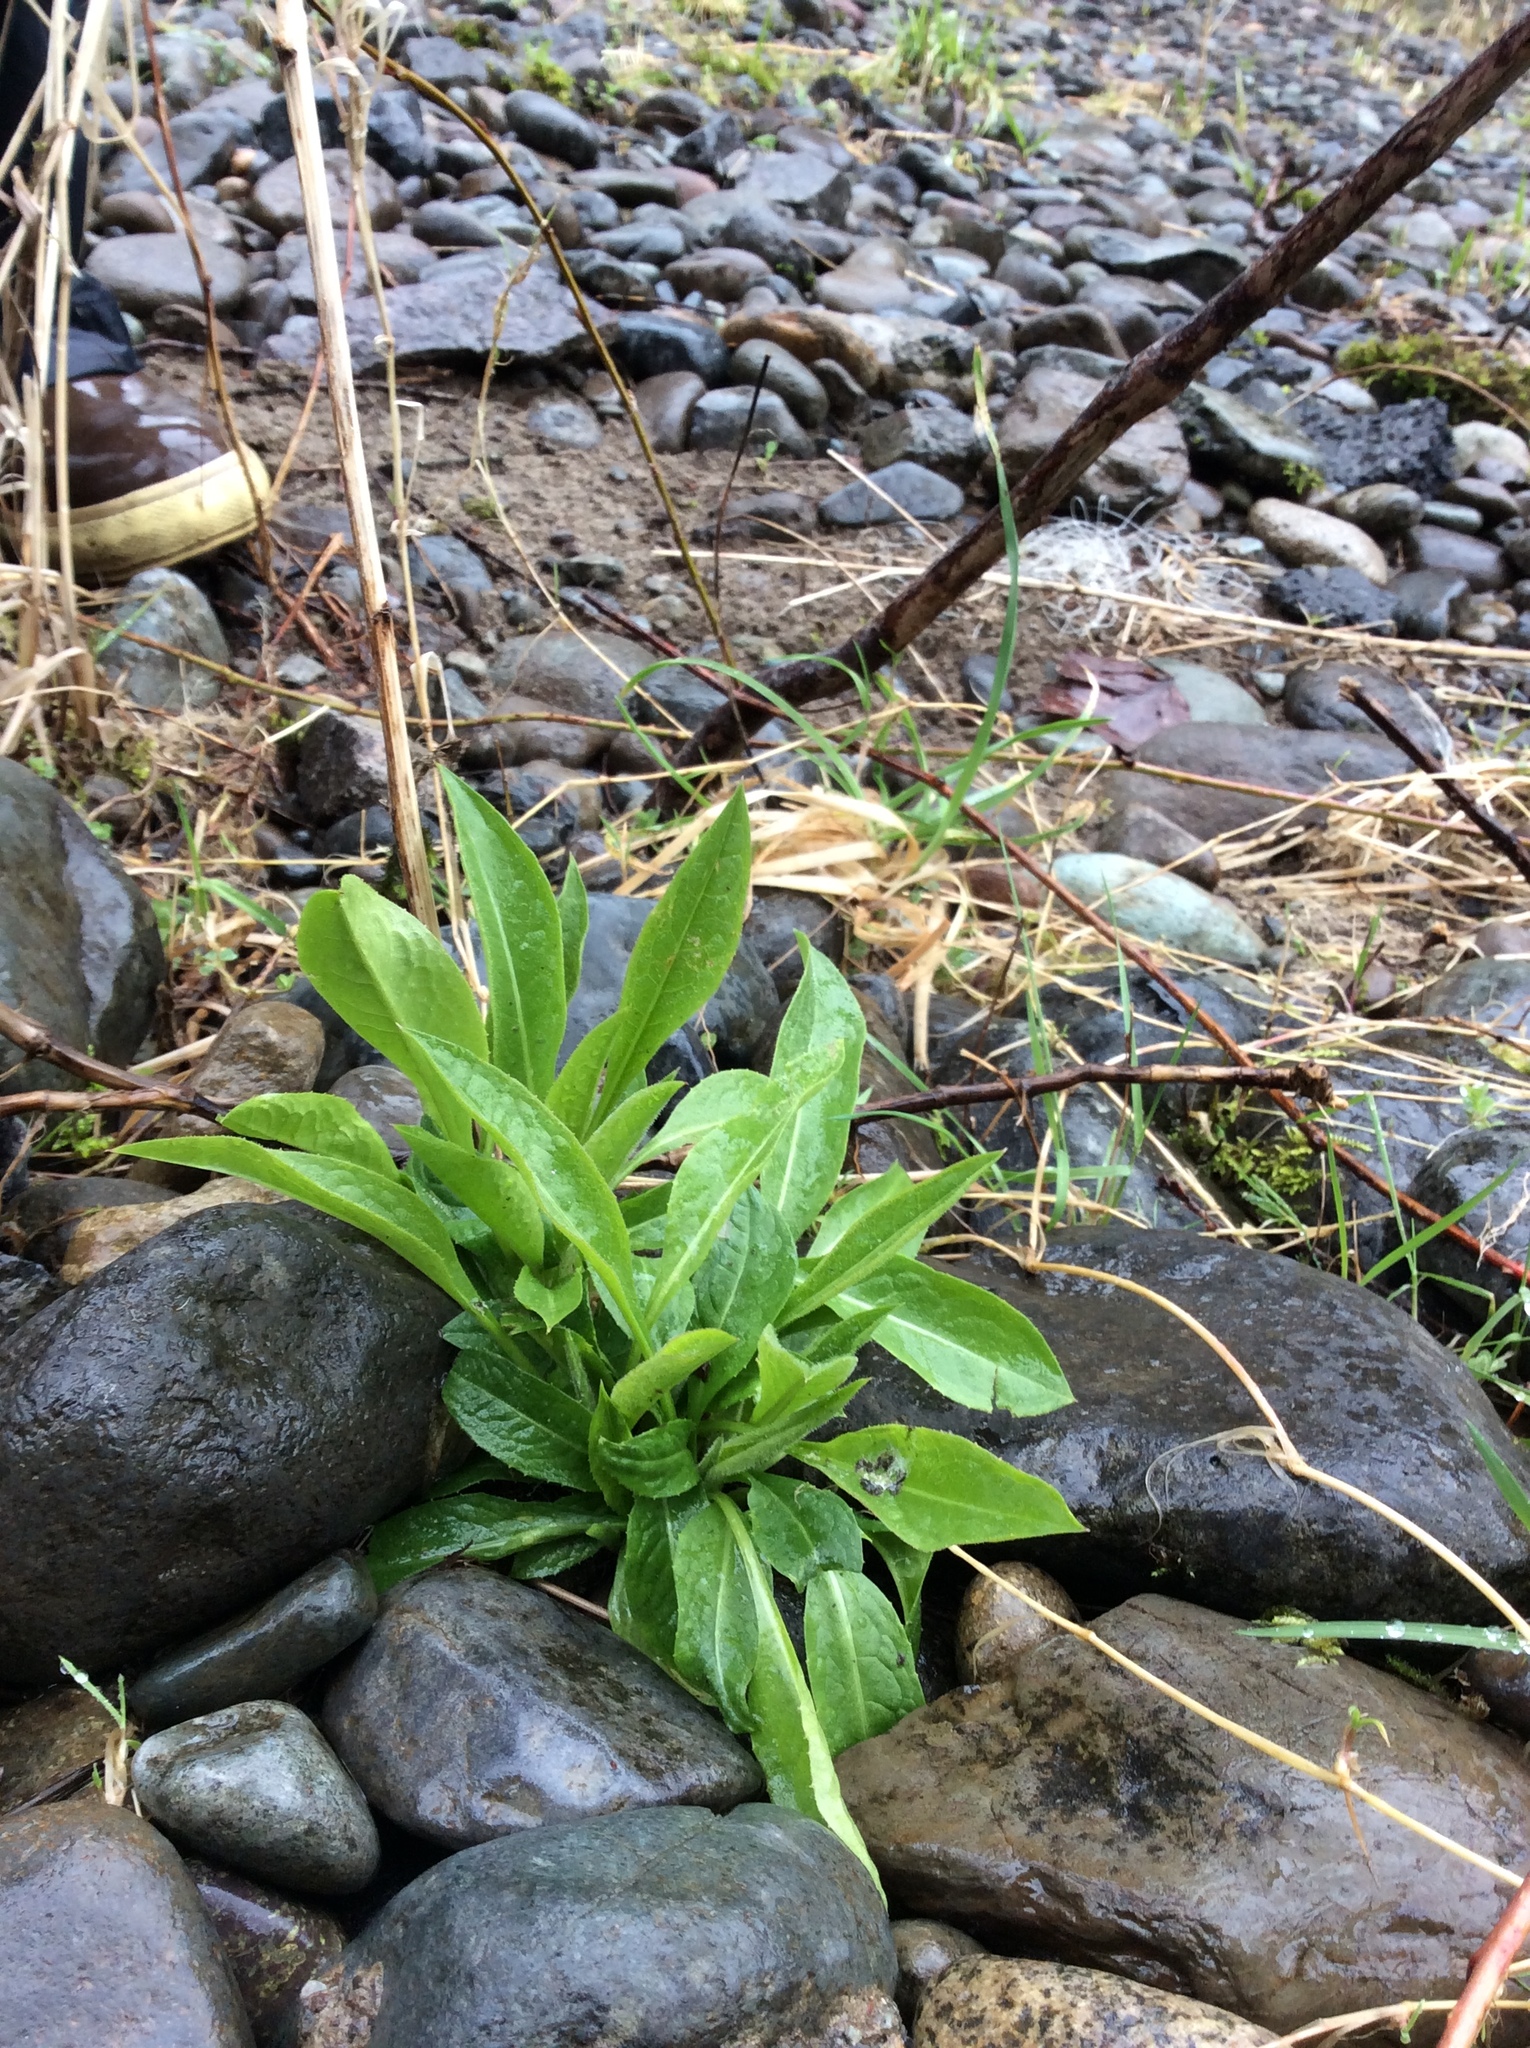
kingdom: Plantae
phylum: Tracheophyta
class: Magnoliopsida
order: Brassicales
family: Brassicaceae
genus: Hesperis
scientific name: Hesperis matronalis
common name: Dame's-violet
